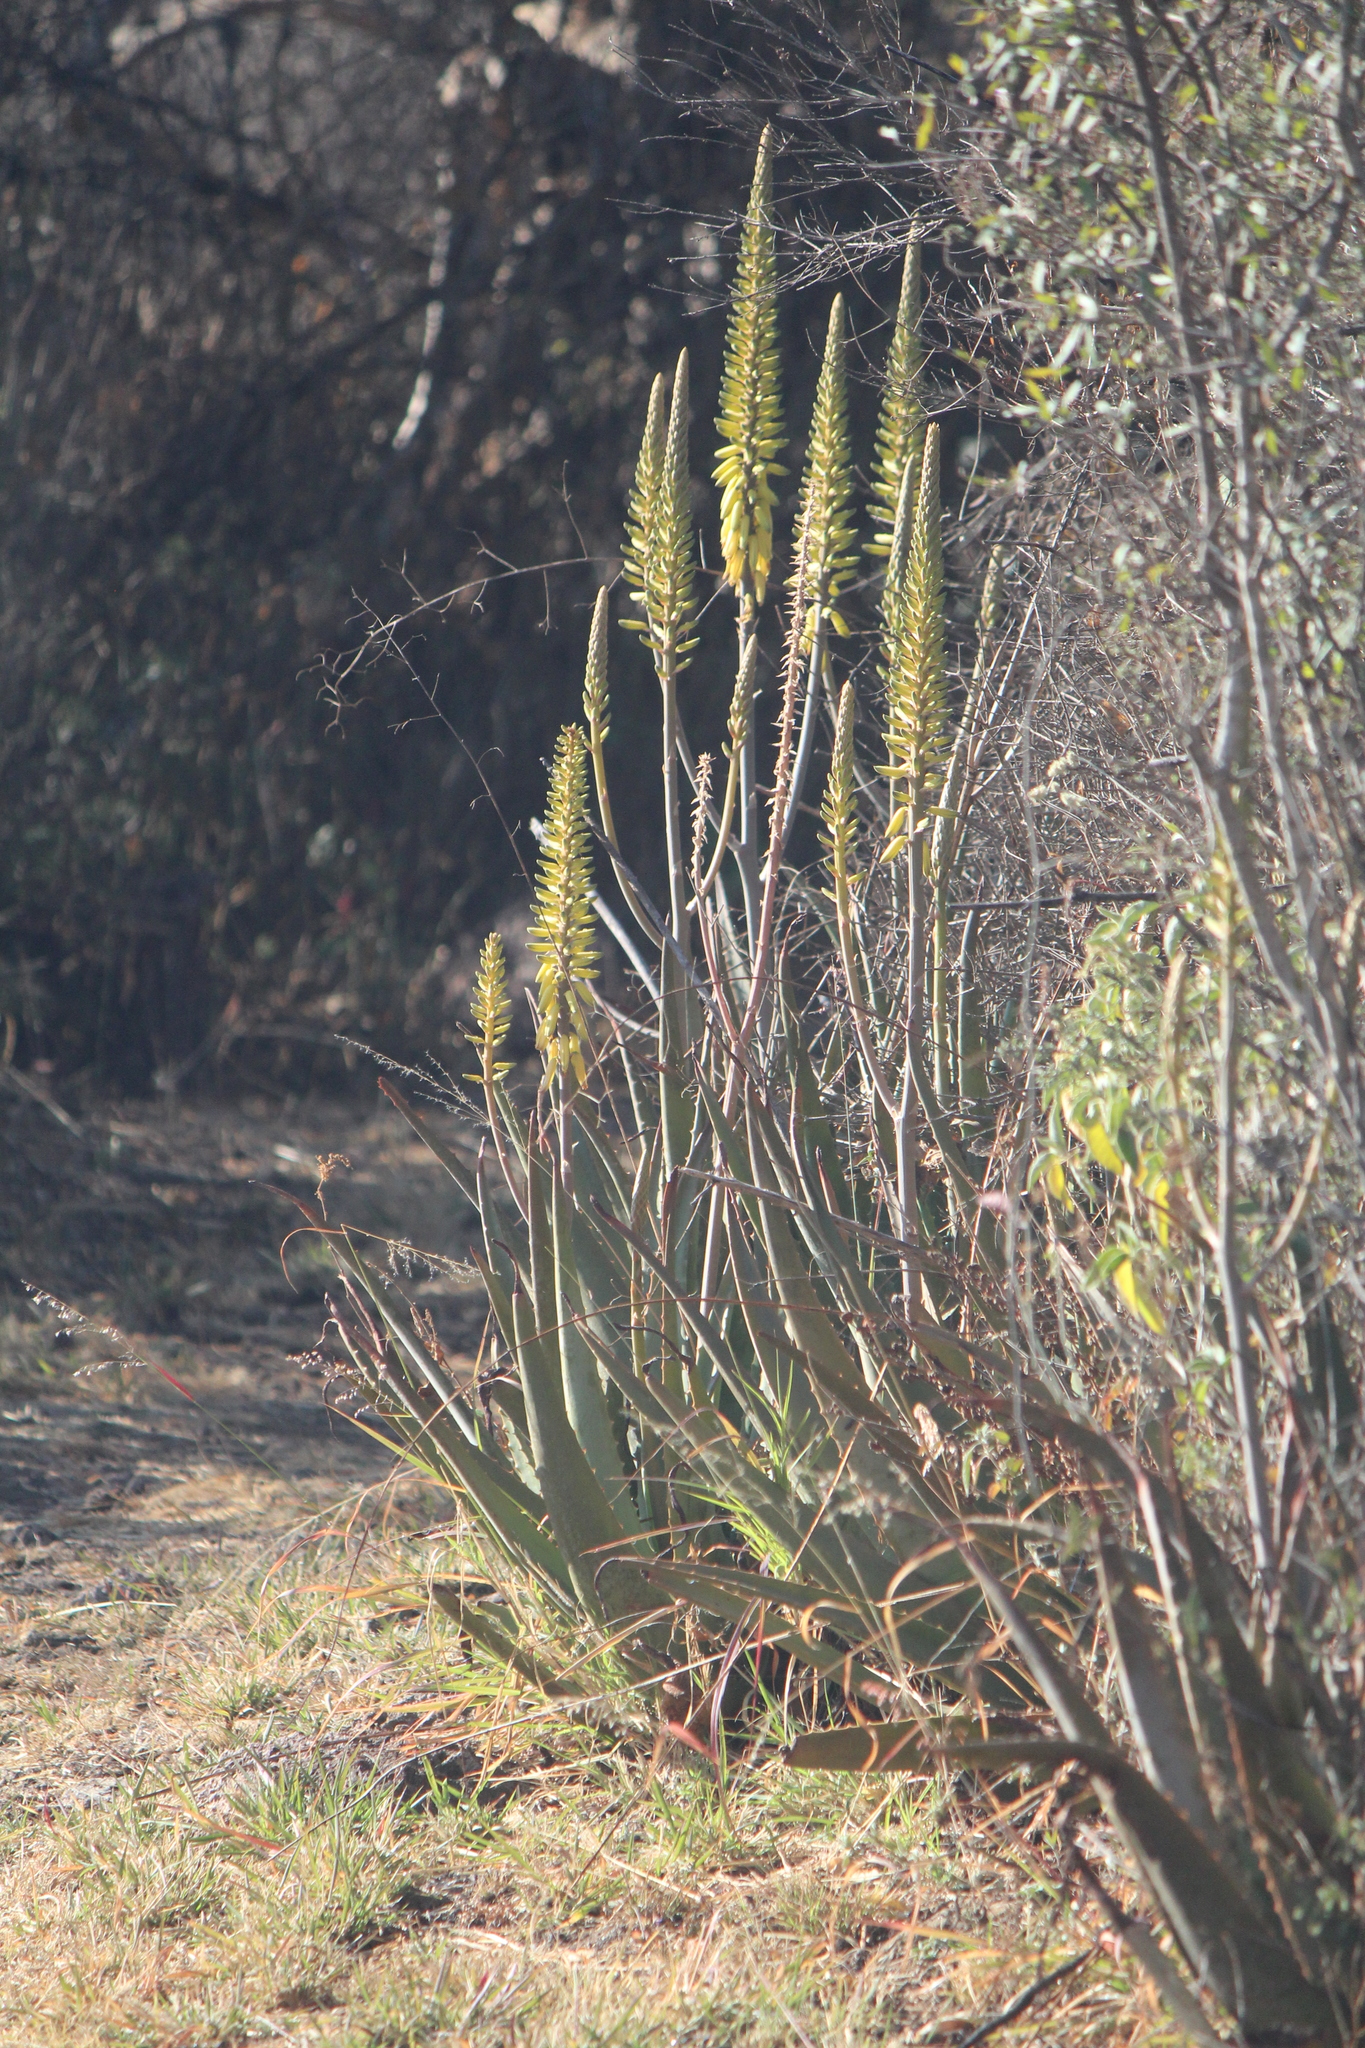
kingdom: Plantae
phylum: Tracheophyta
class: Liliopsida
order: Asparagales
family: Asphodelaceae
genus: Aloe
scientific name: Aloe vera
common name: Barbados aloe
